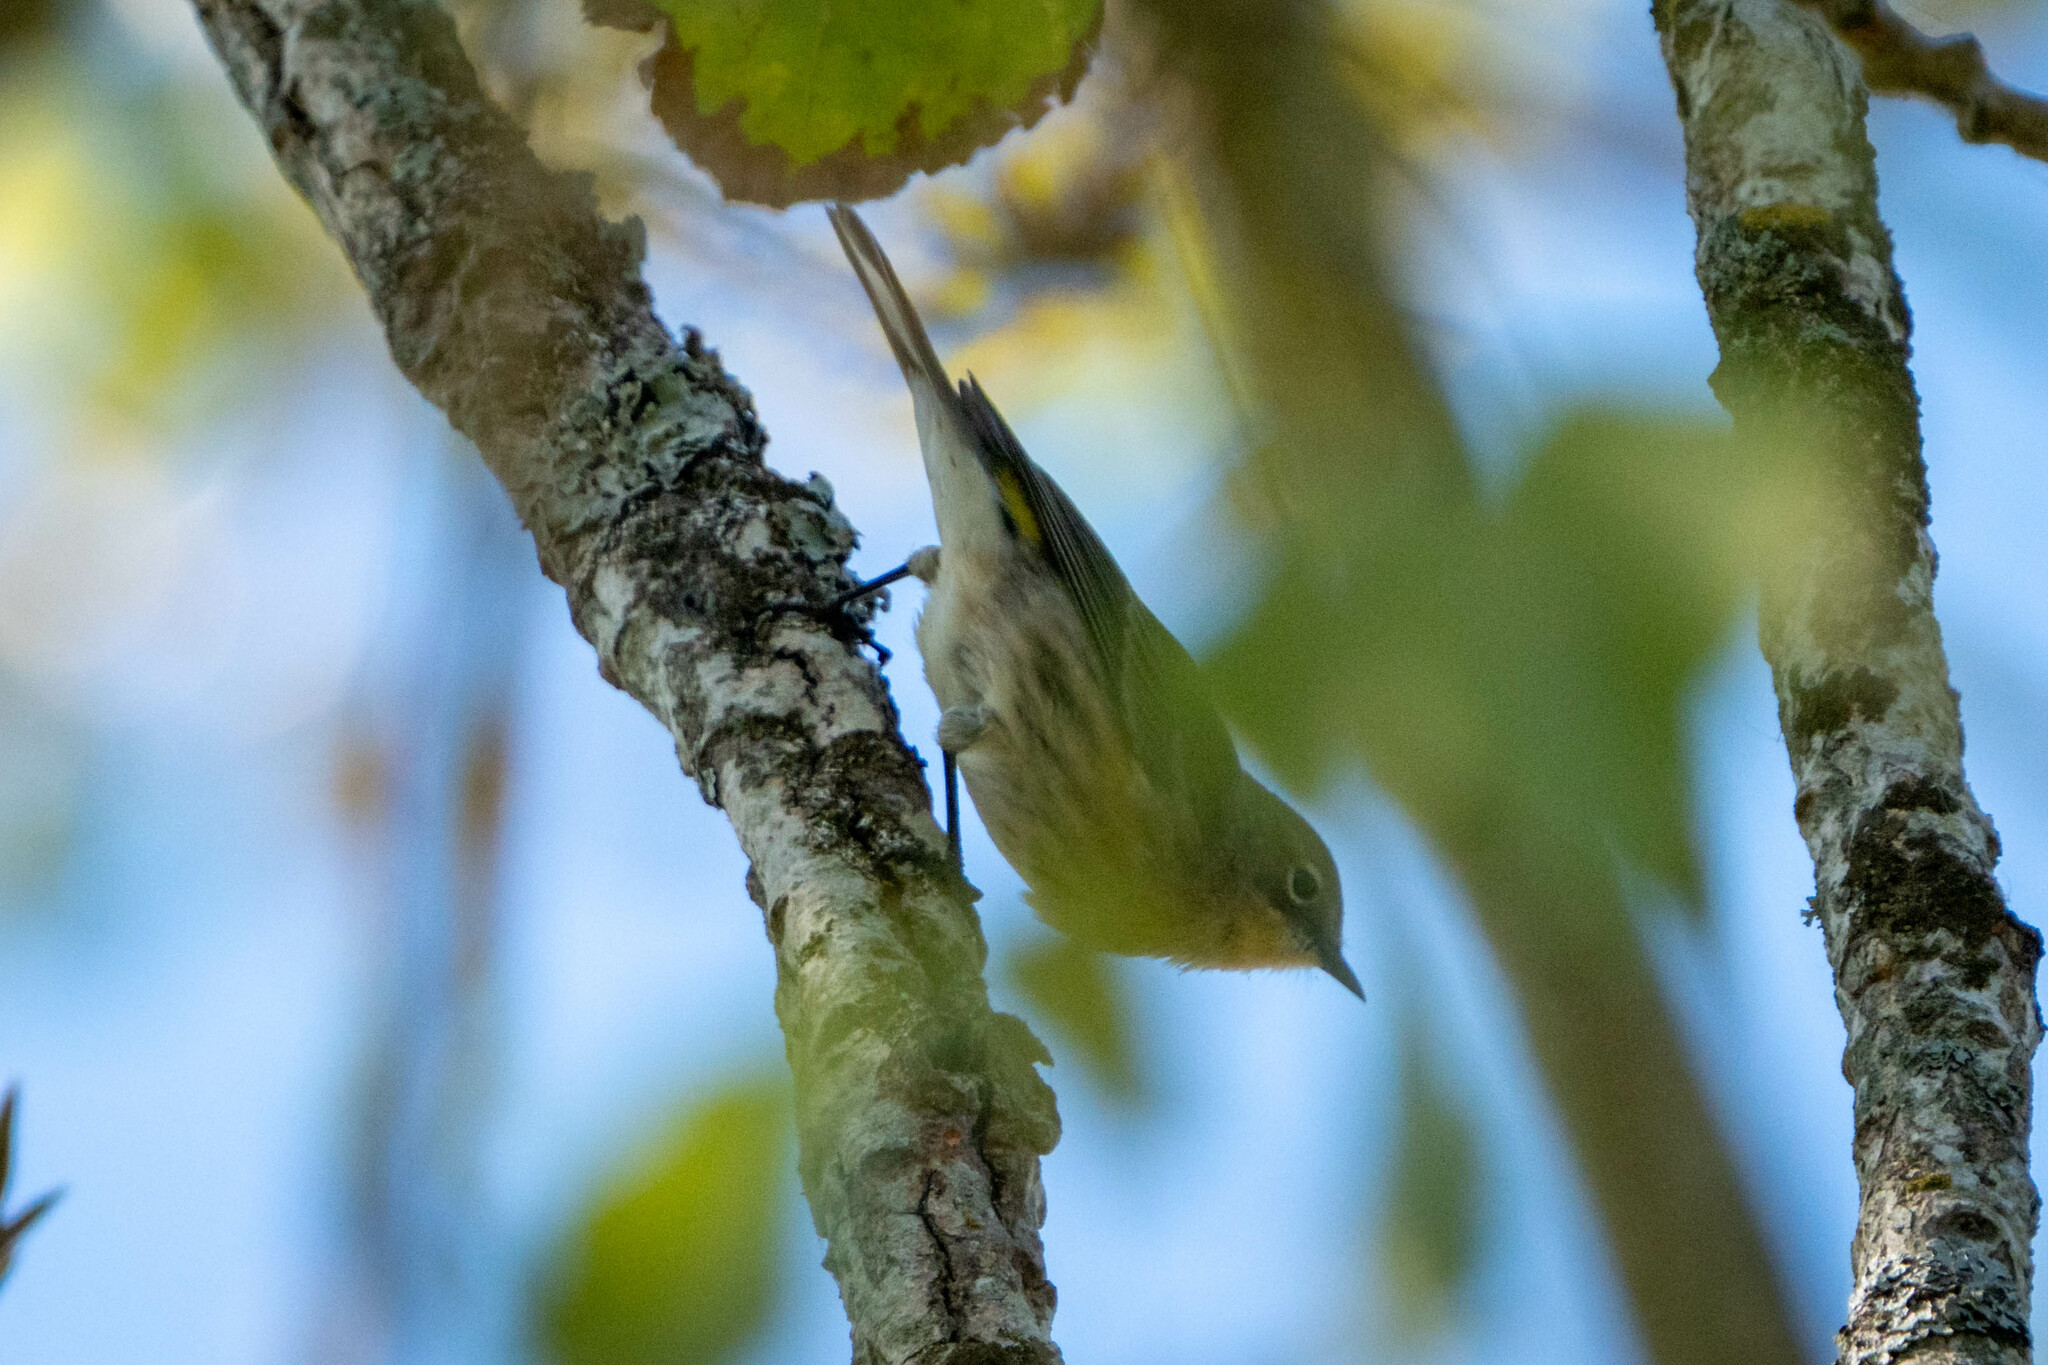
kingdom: Animalia
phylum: Chordata
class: Aves
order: Passeriformes
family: Parulidae
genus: Setophaga
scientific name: Setophaga coronata
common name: Myrtle warbler
